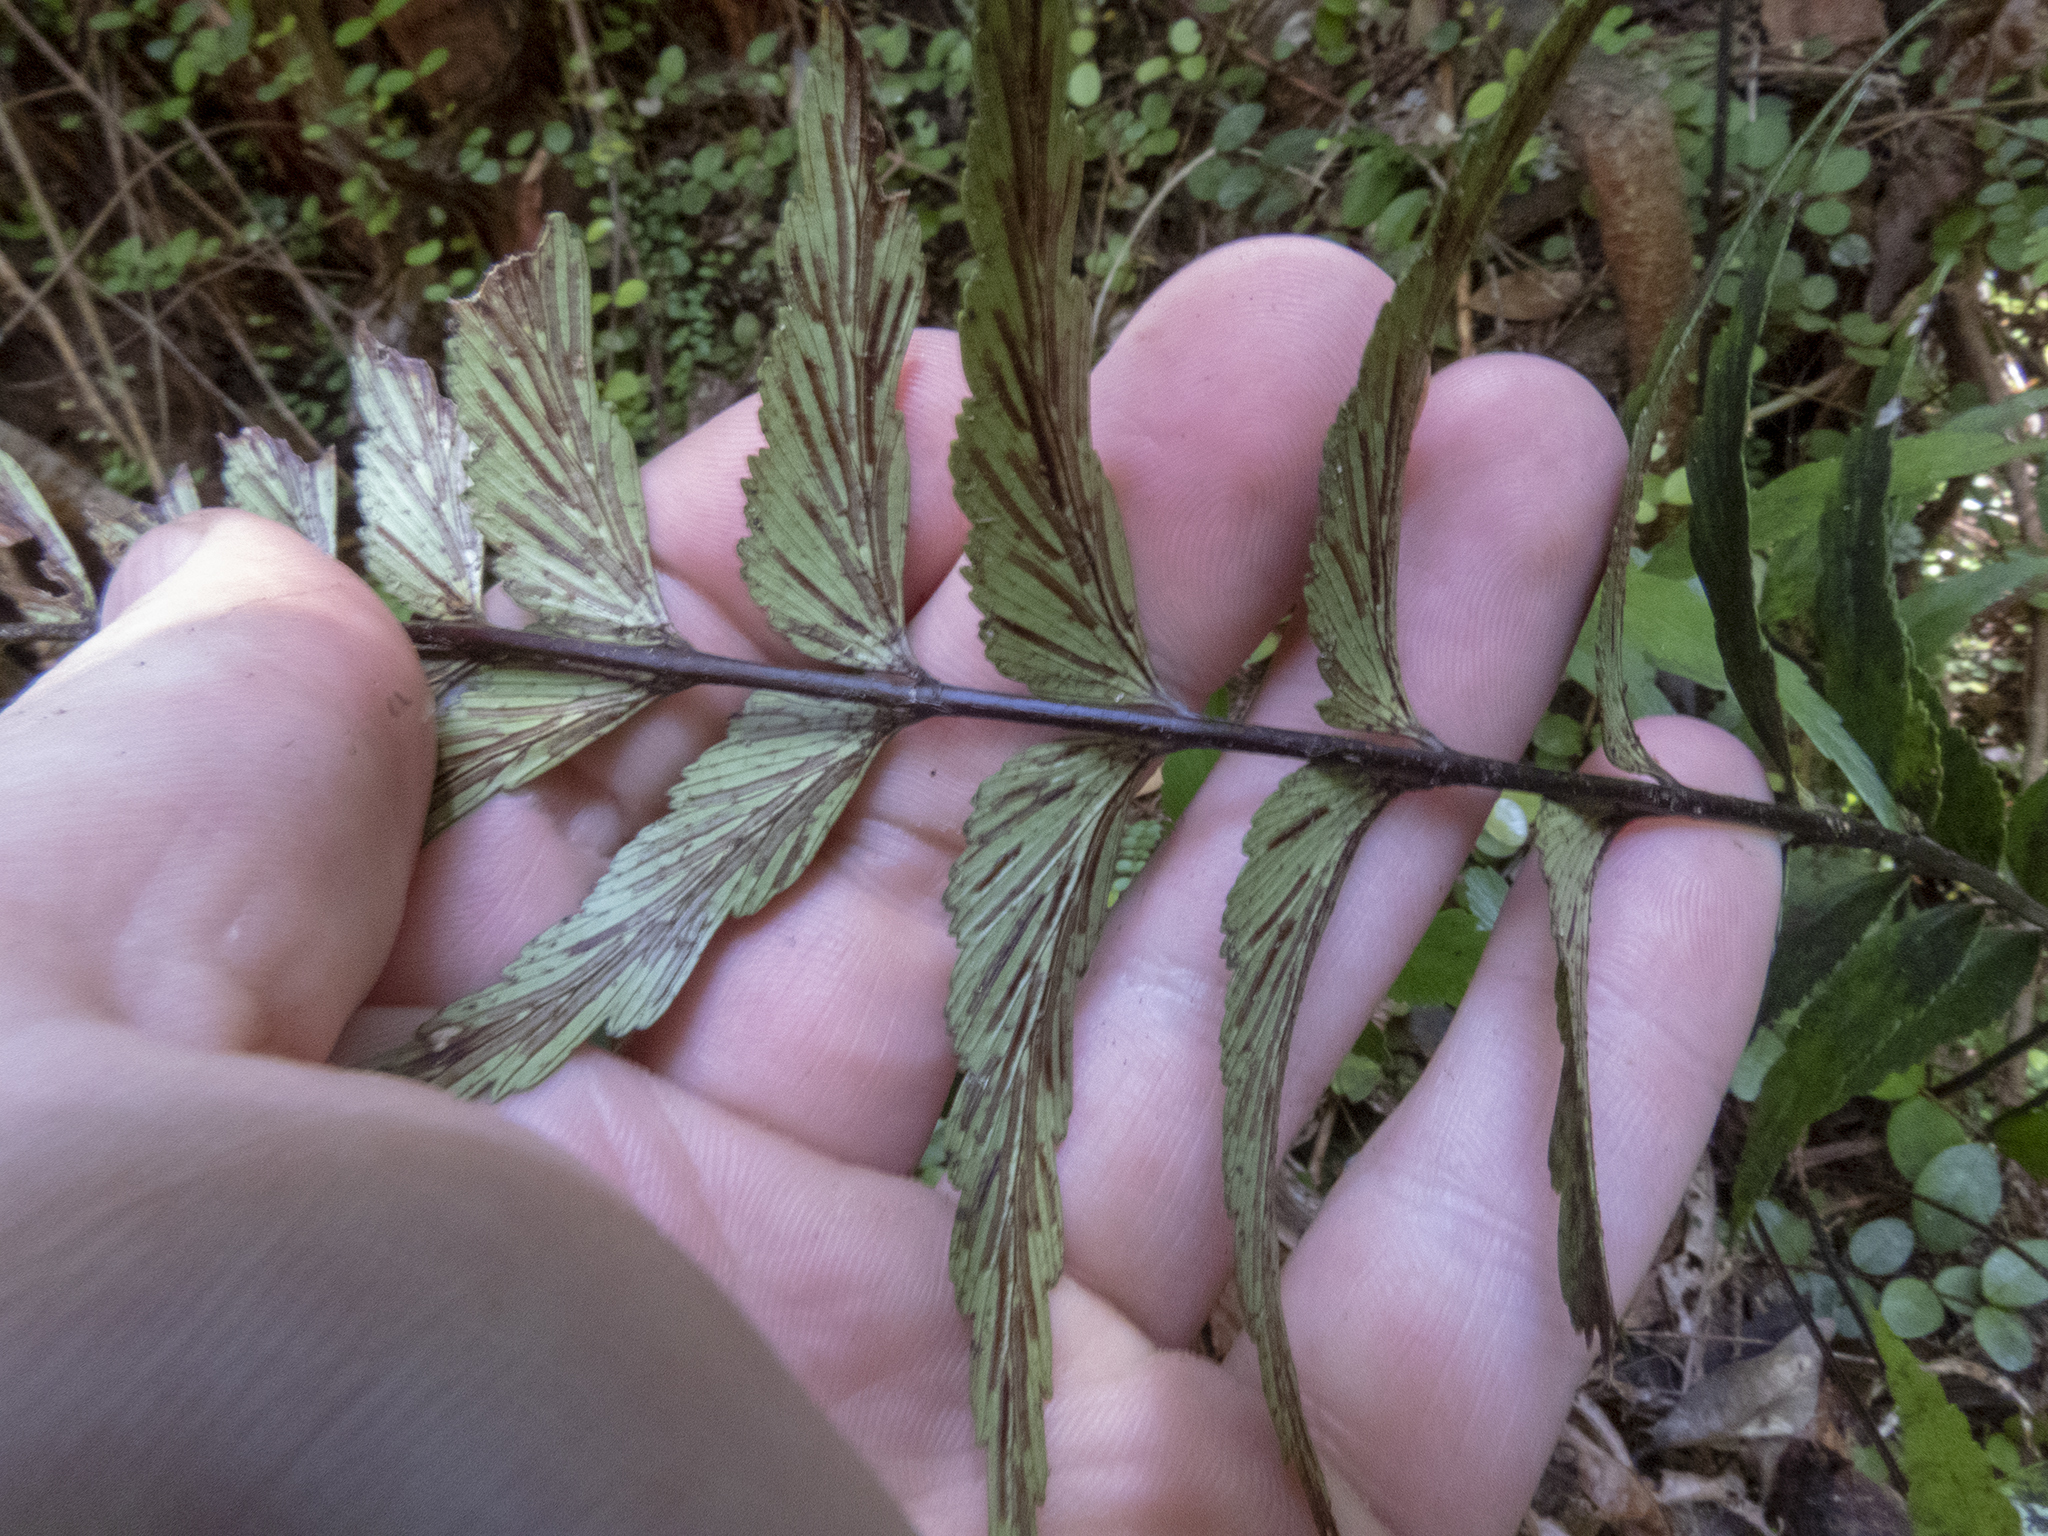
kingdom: Plantae
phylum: Tracheophyta
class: Polypodiopsida
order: Polypodiales
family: Aspleniaceae
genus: Asplenium
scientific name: Asplenium polyodon
